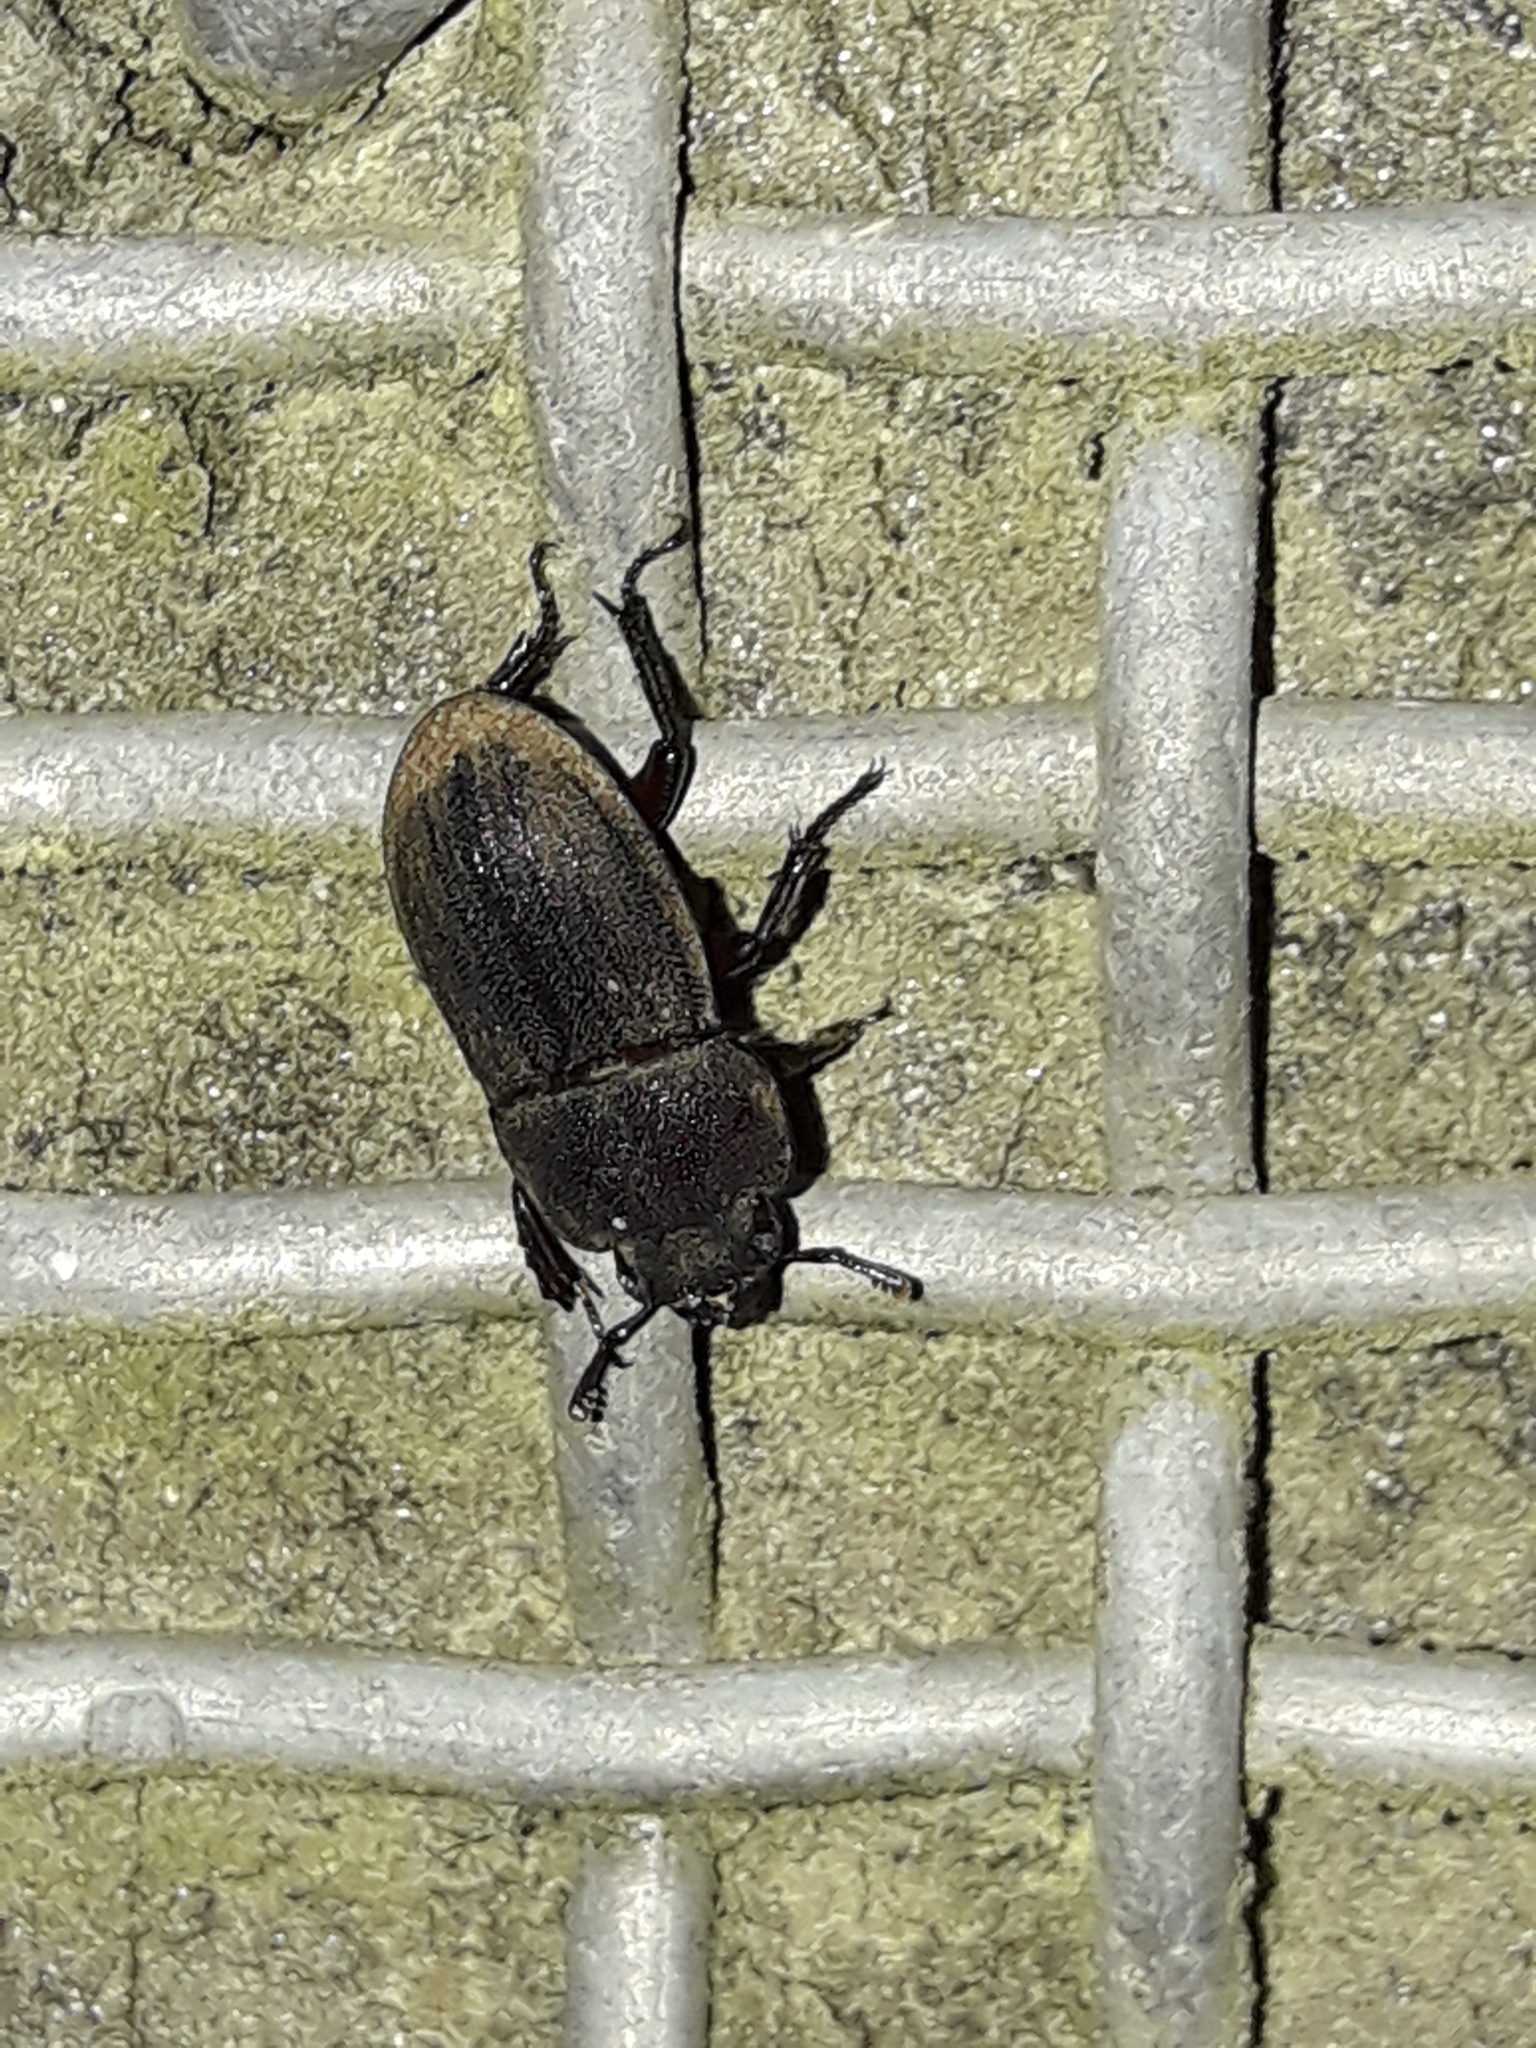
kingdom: Animalia
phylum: Arthropoda
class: Insecta
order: Coleoptera
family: Lucanidae
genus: Geodorcus
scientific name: Geodorcus novaezealandiae
